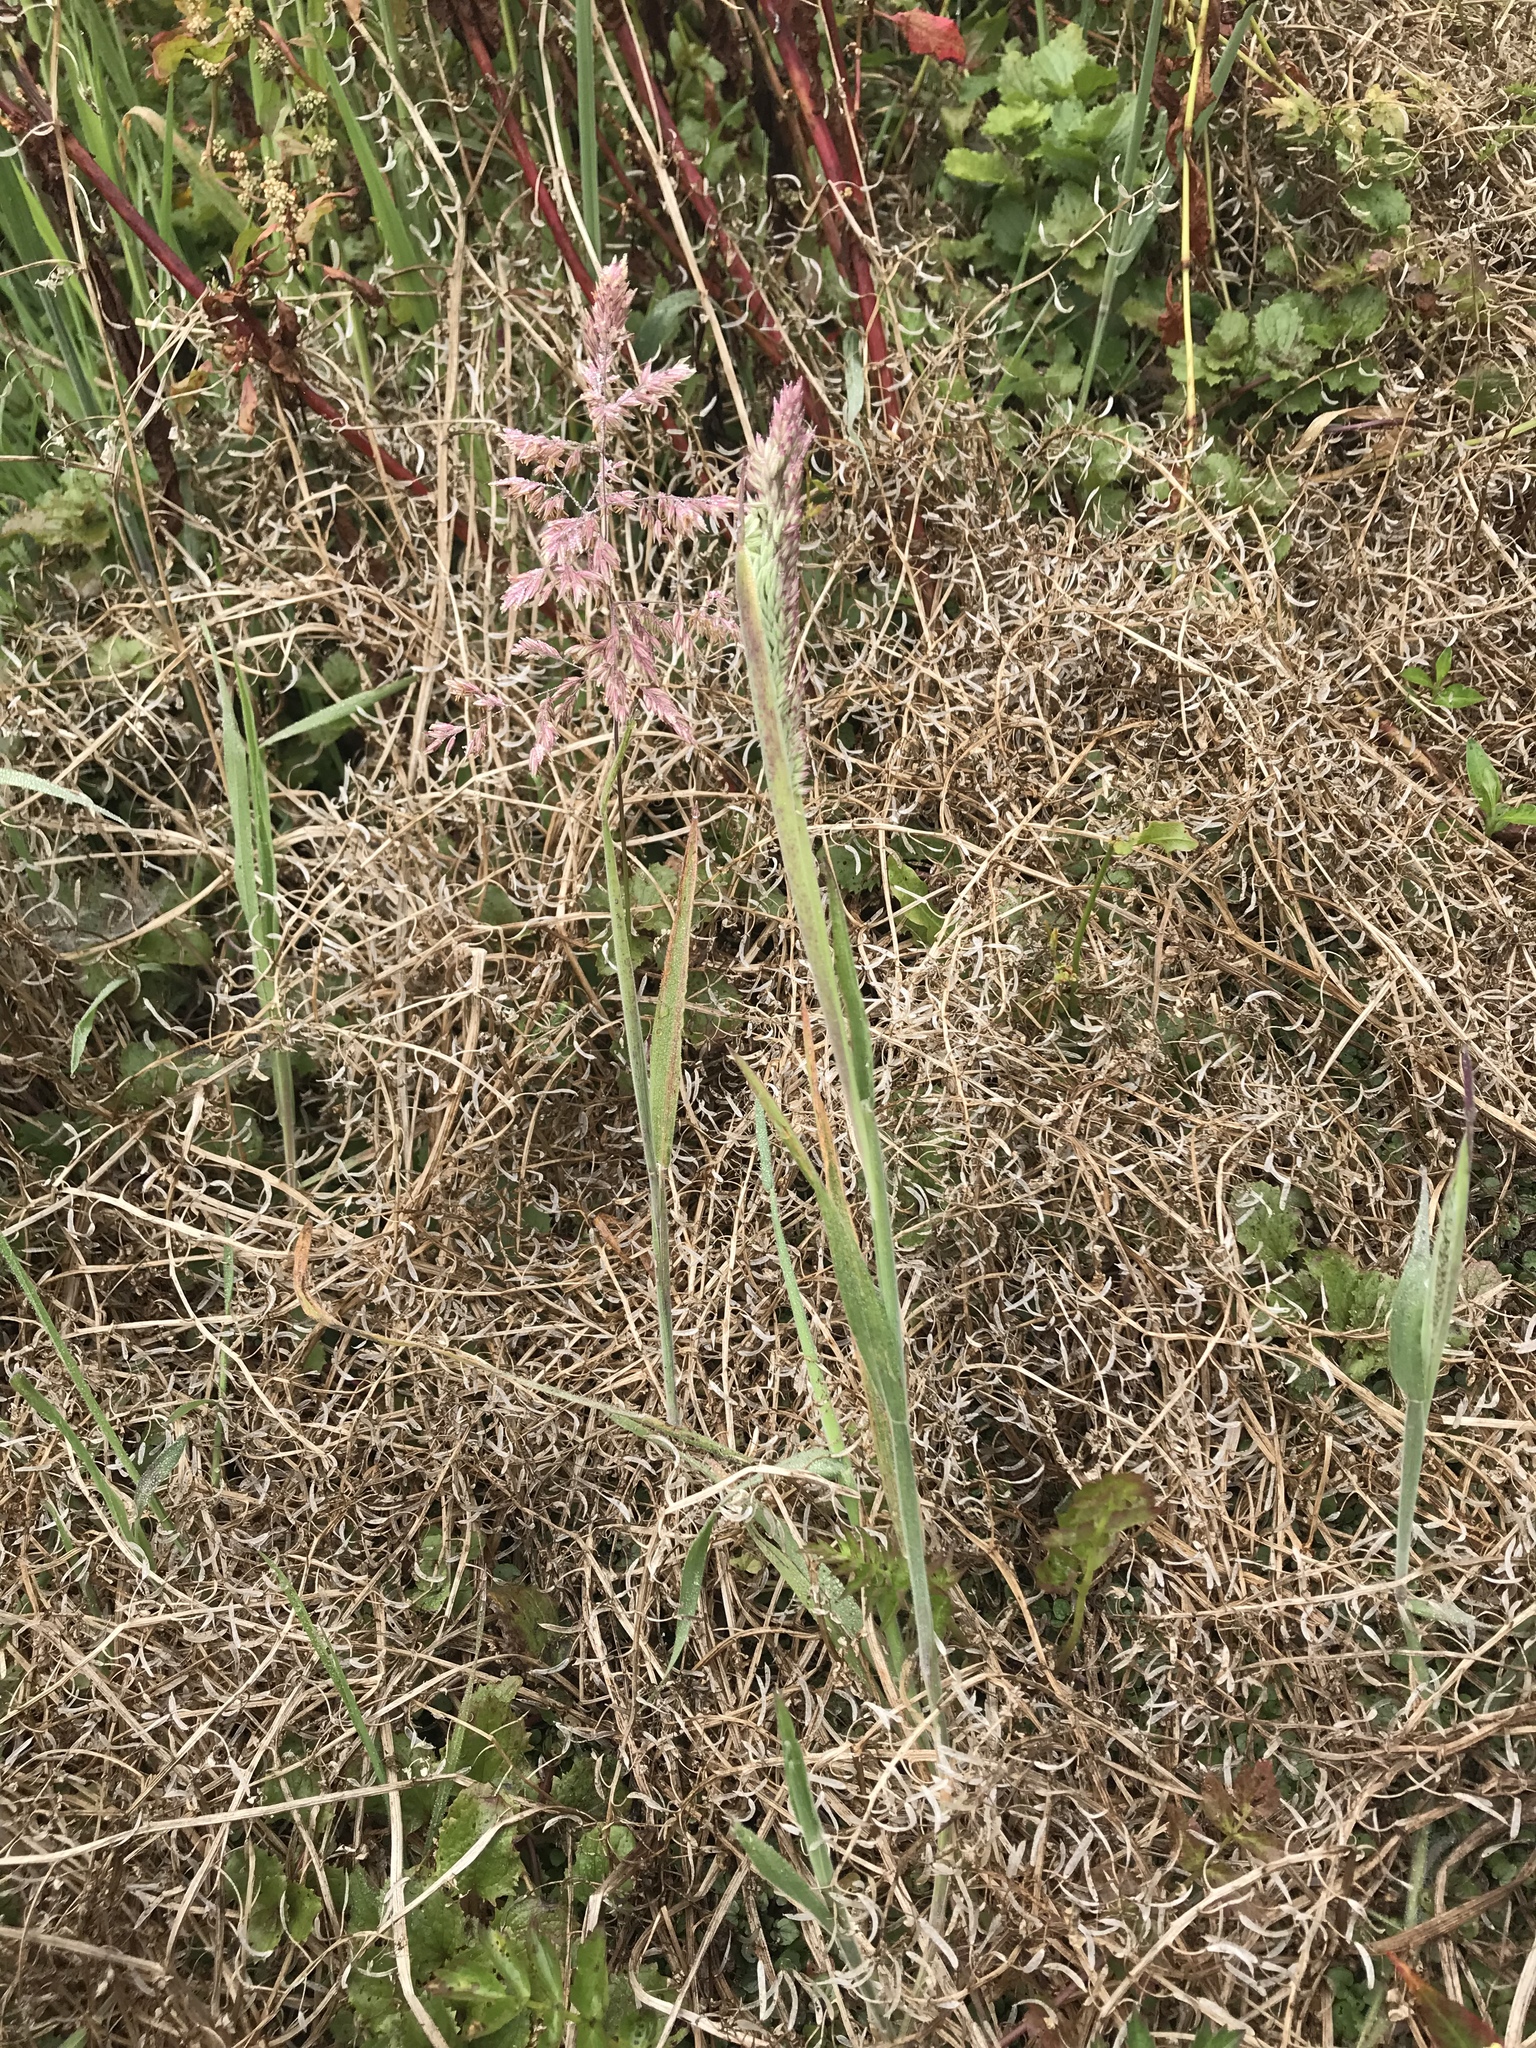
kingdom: Plantae
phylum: Tracheophyta
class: Liliopsida
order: Poales
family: Poaceae
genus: Holcus
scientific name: Holcus lanatus
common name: Yorkshire-fog
